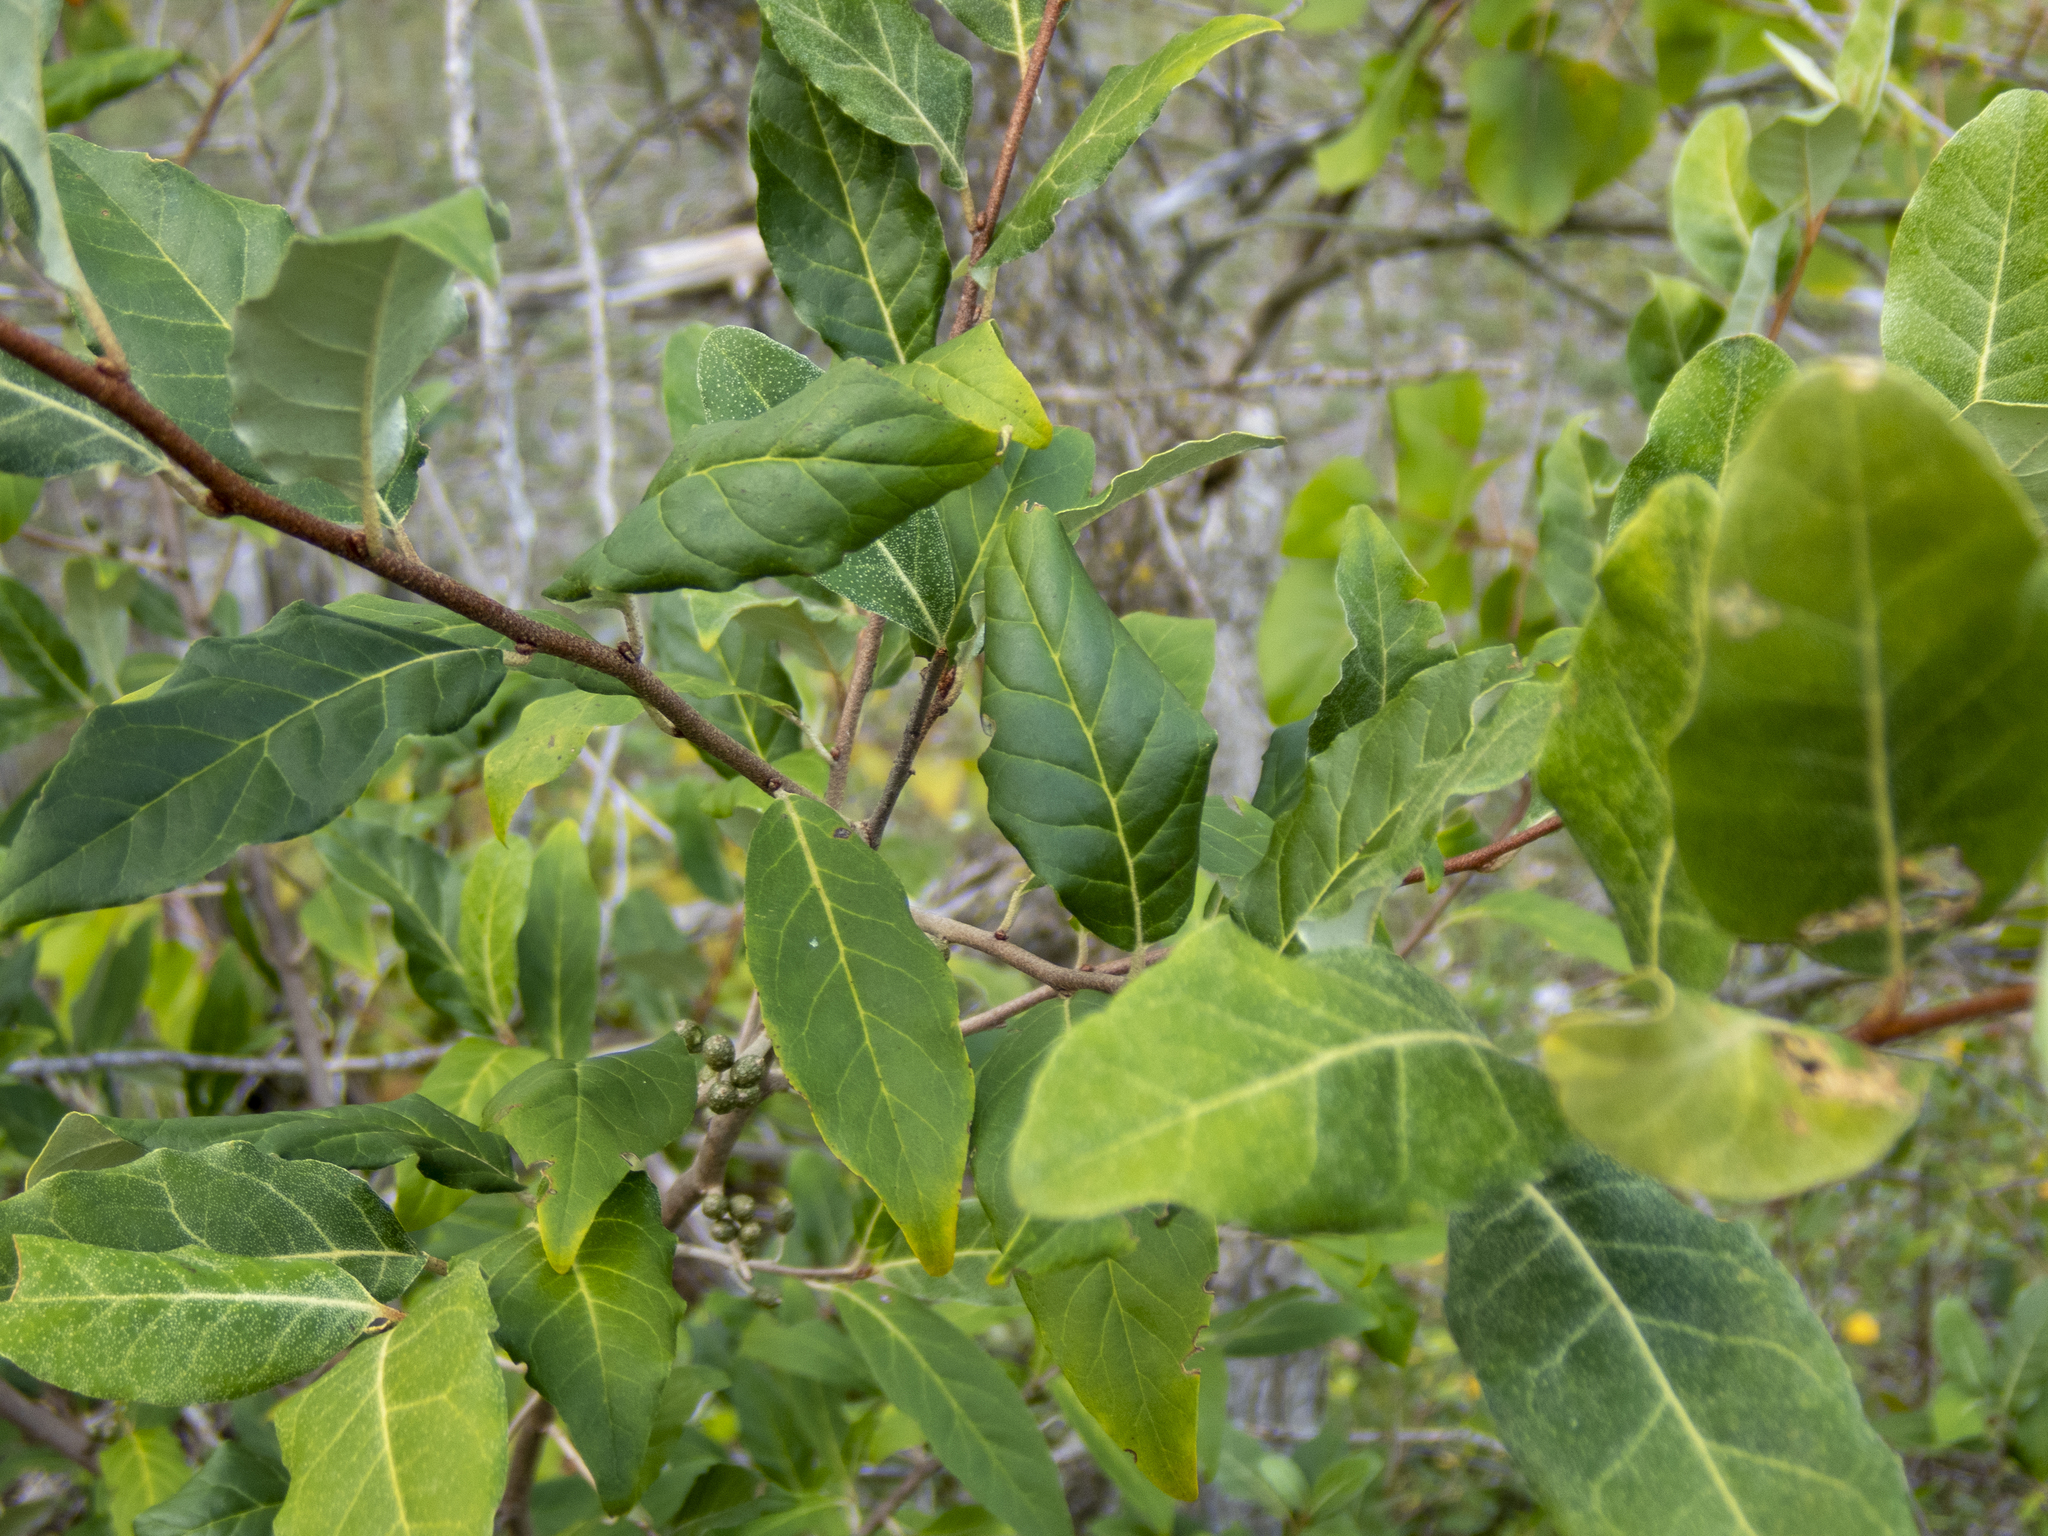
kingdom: Plantae
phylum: Tracheophyta
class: Magnoliopsida
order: Rosales
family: Elaeagnaceae
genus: Elaeagnus
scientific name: Elaeagnus umbellata
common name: Autumn olive
